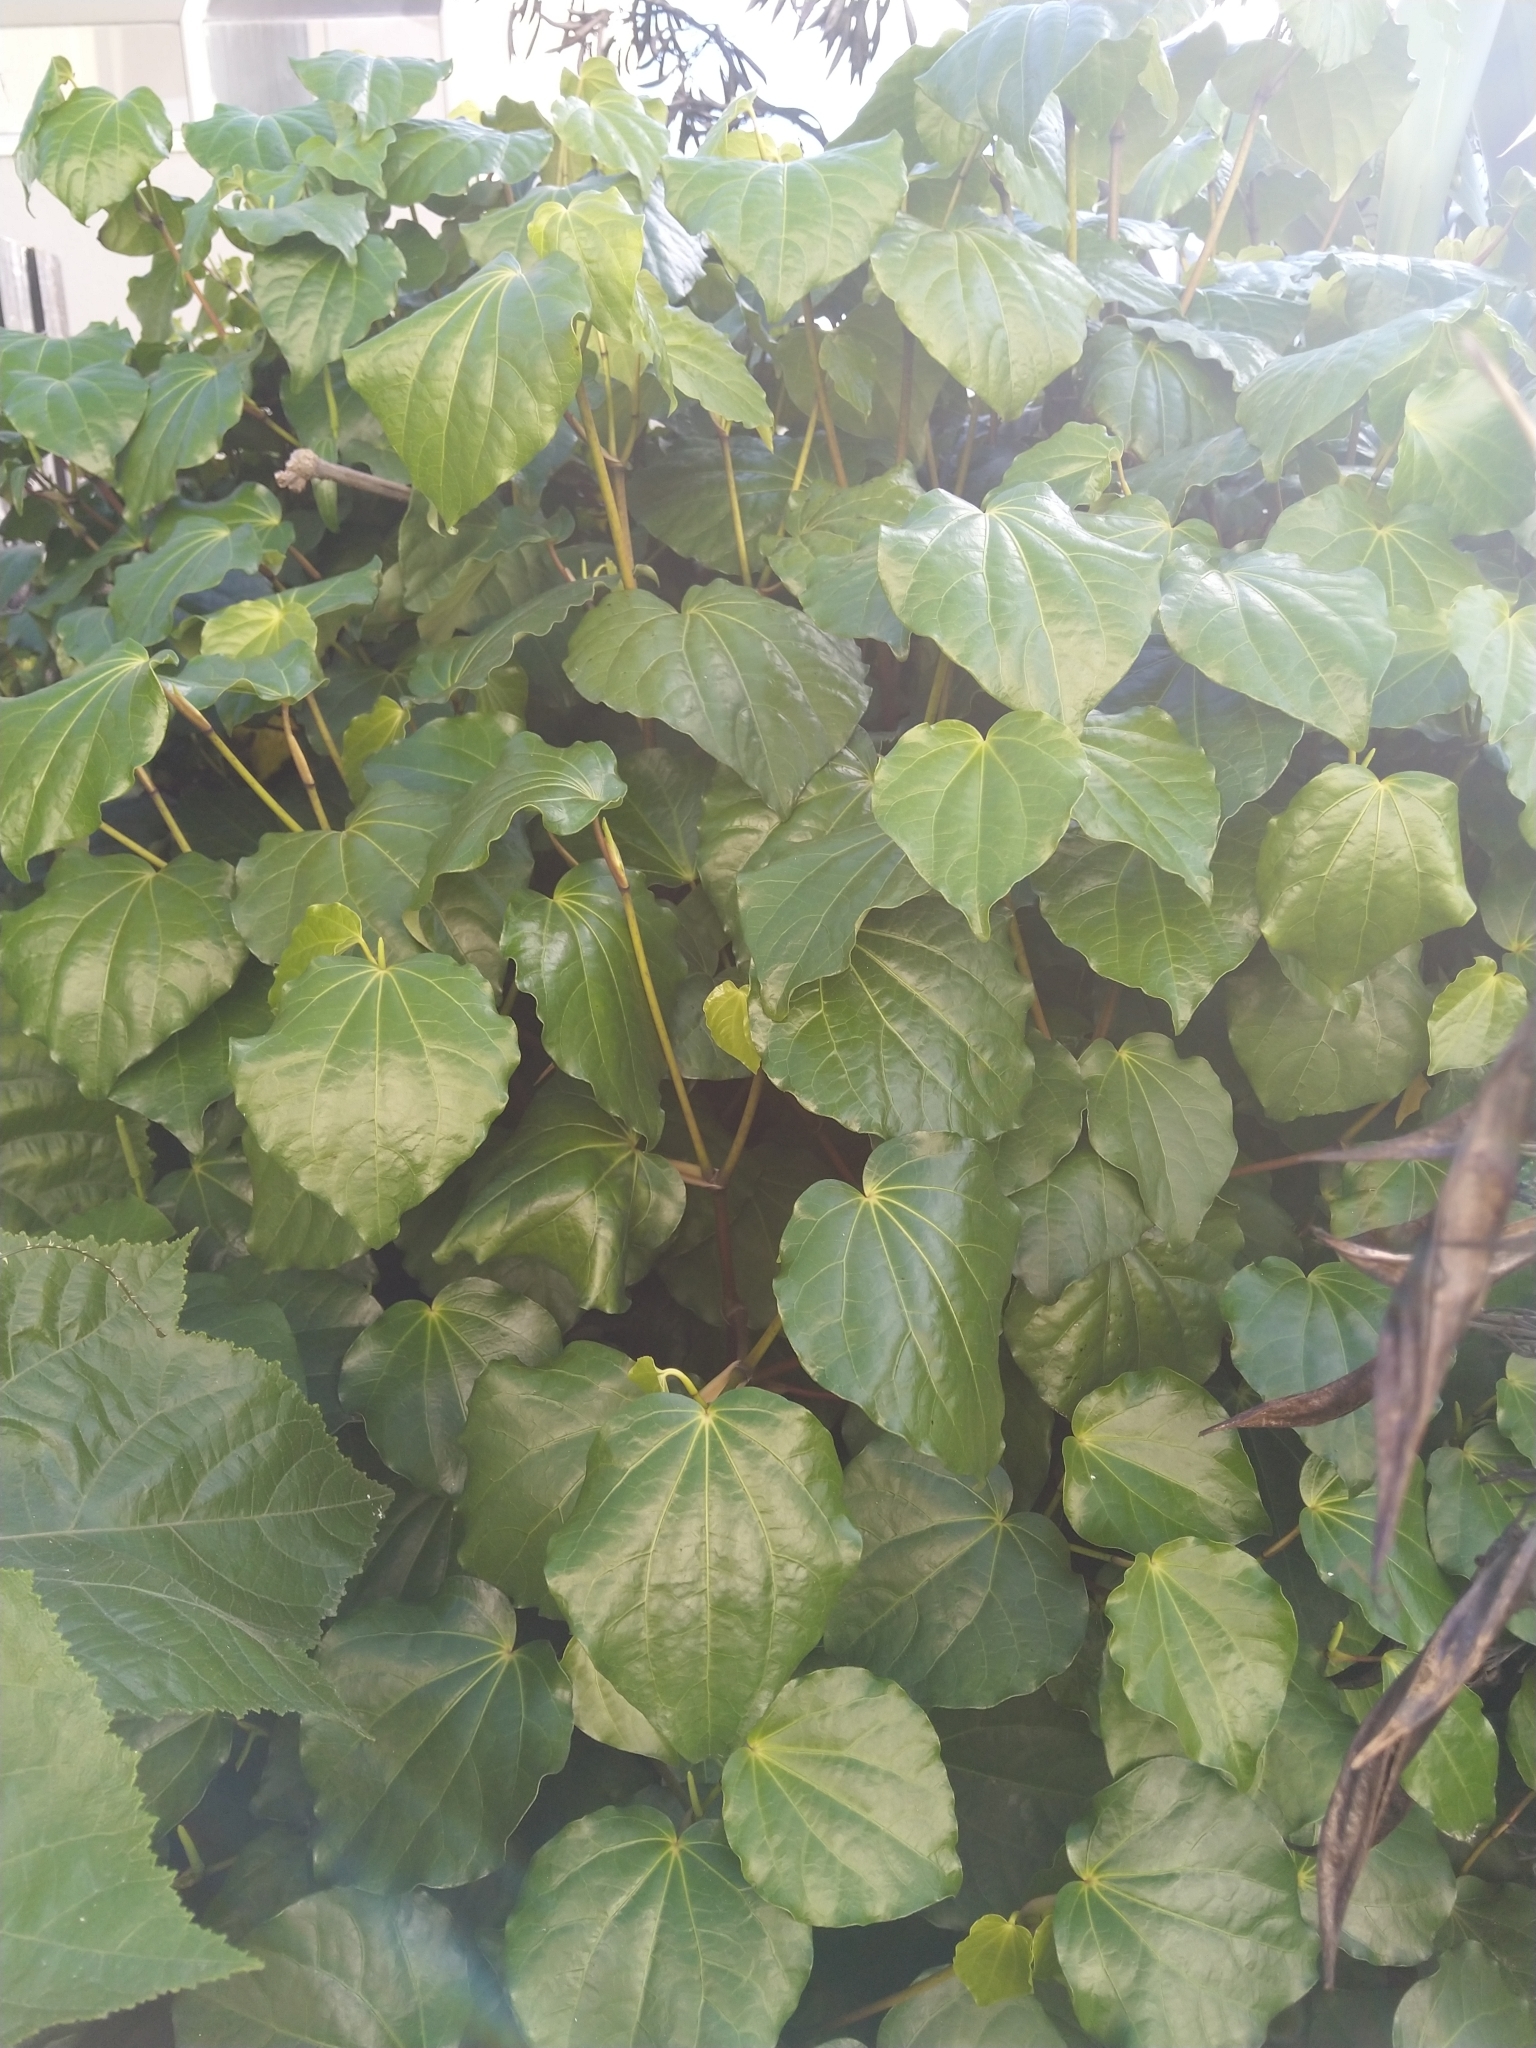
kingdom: Plantae
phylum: Tracheophyta
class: Magnoliopsida
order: Piperales
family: Piperaceae
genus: Macropiper
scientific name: Macropiper excelsum
